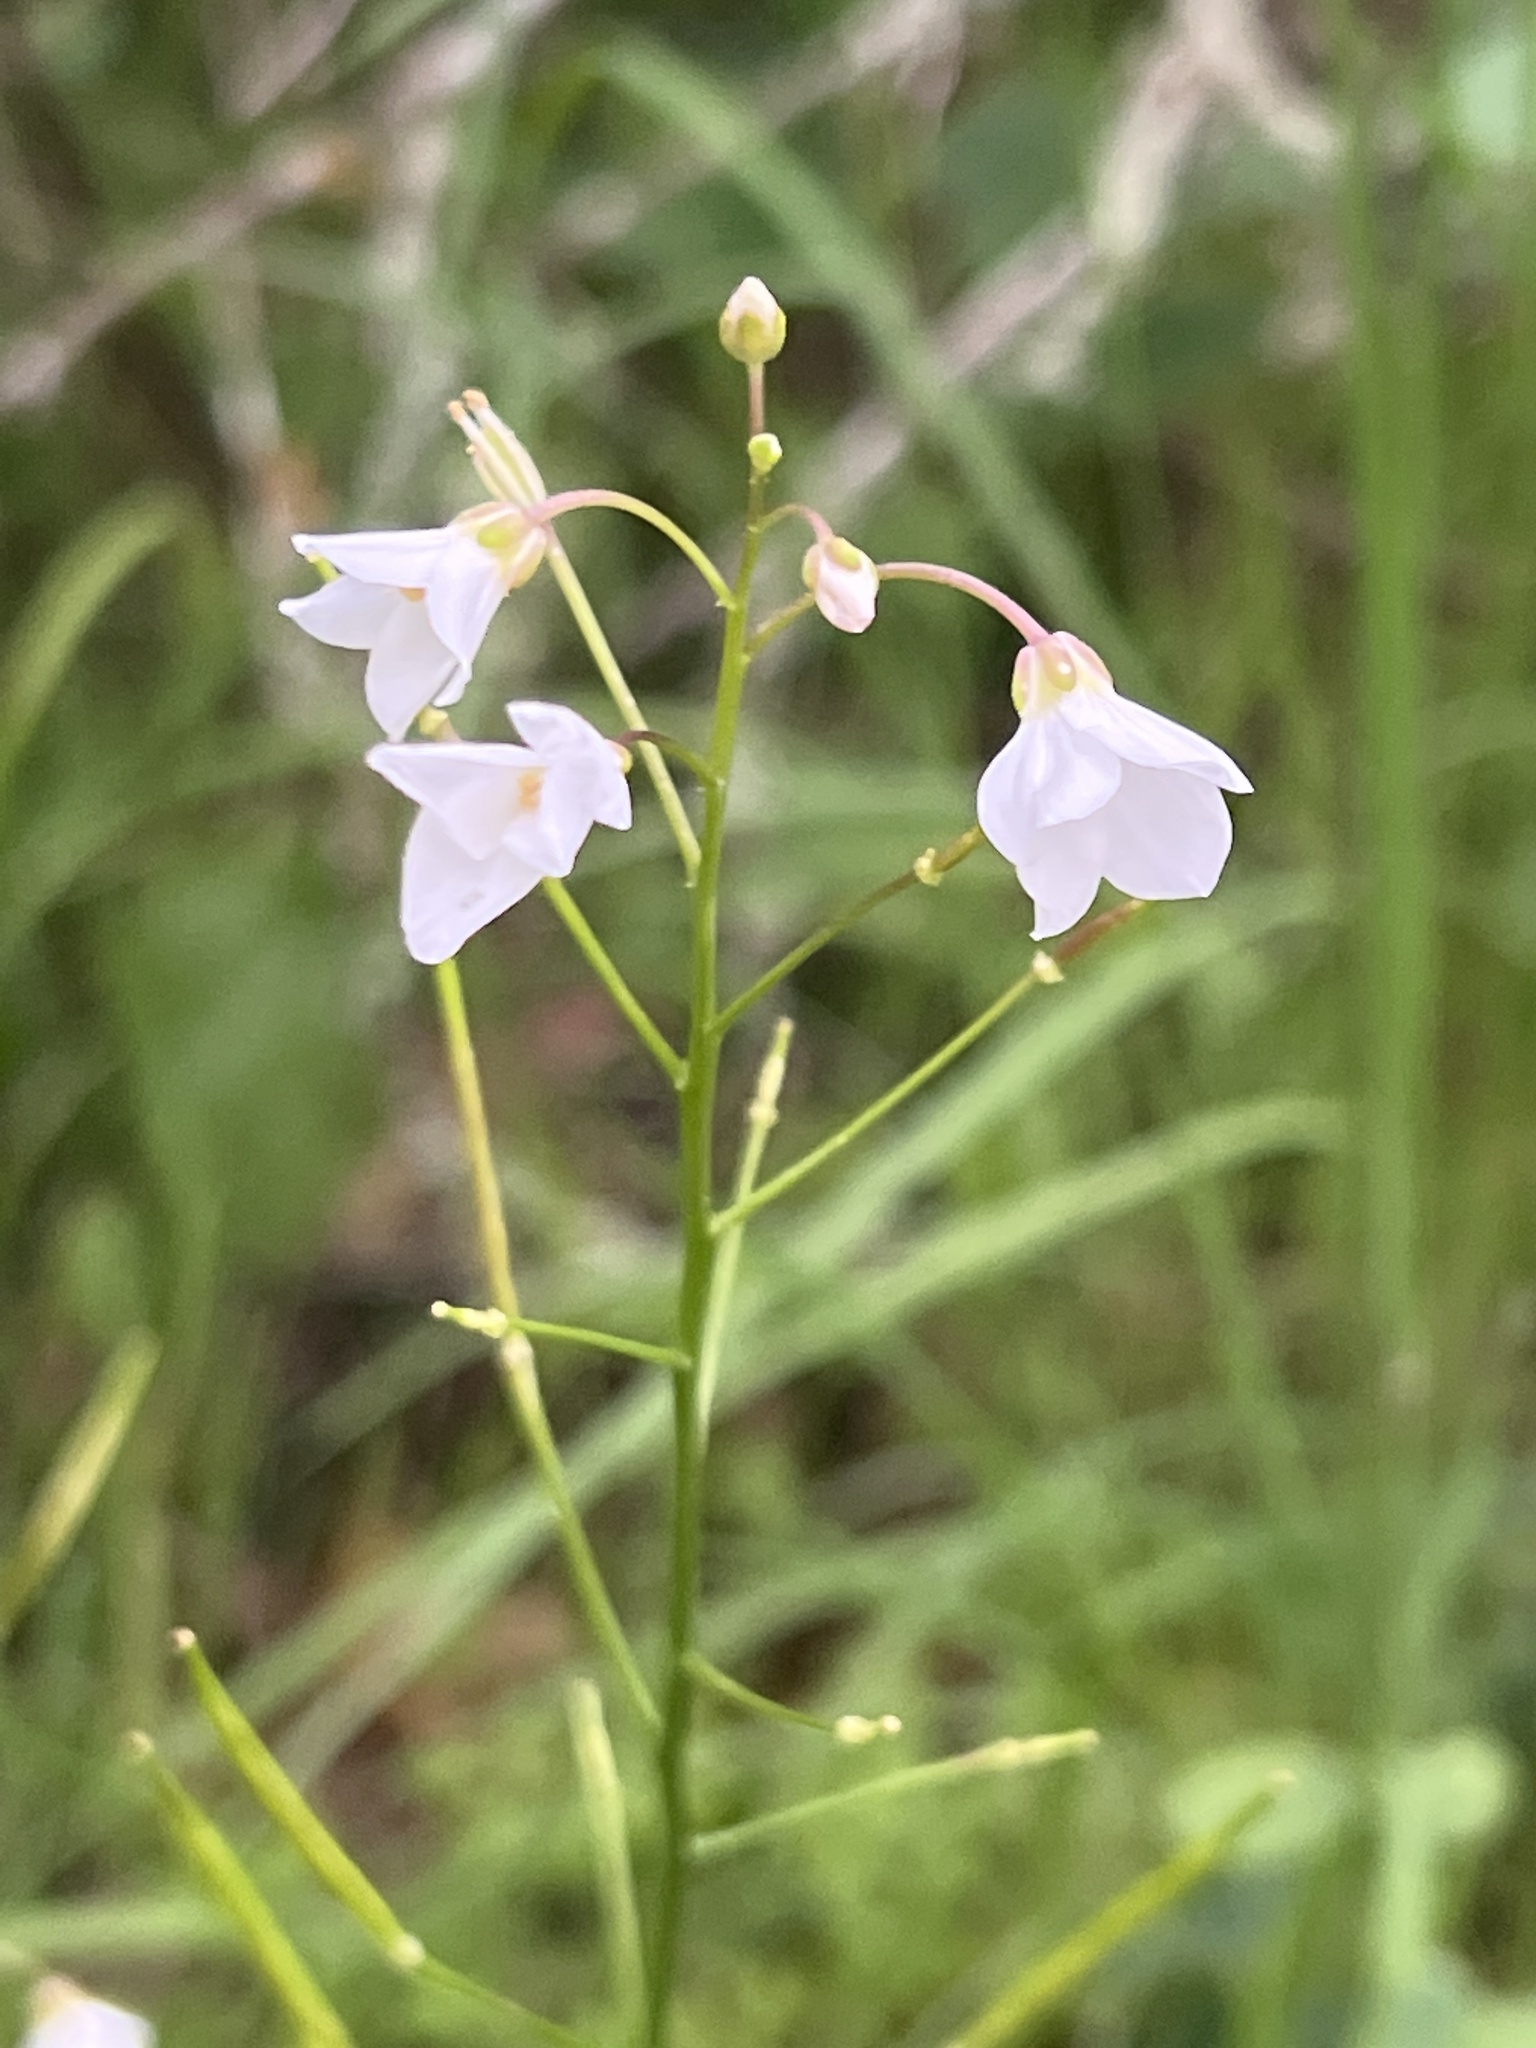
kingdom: Plantae
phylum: Tracheophyta
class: Magnoliopsida
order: Brassicales
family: Brassicaceae
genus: Cardamine
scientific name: Cardamine californica
